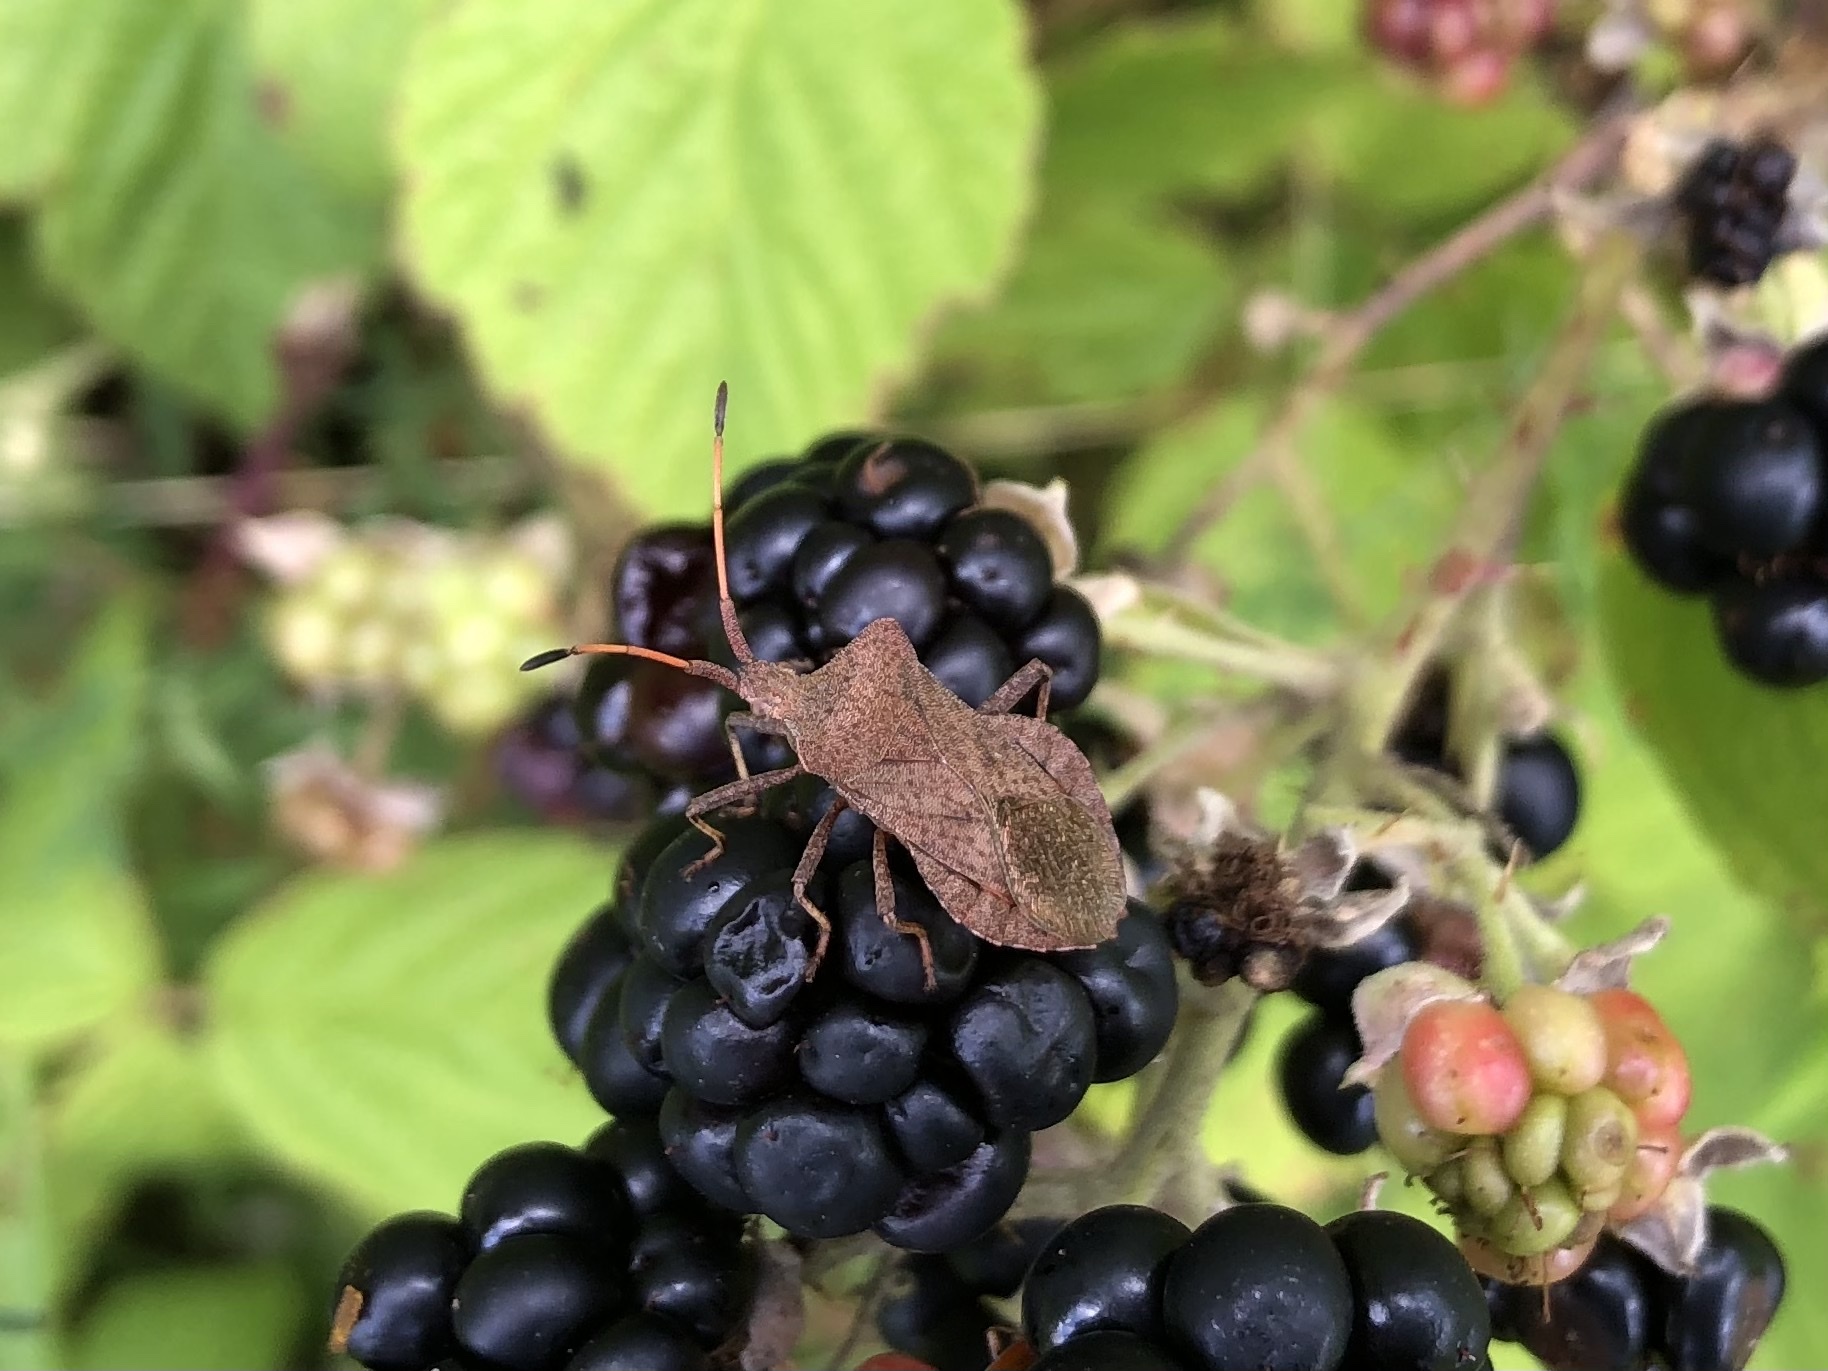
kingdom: Animalia
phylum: Arthropoda
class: Insecta
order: Hemiptera
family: Coreidae
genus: Coreus
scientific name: Coreus marginatus
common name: Dock bug
